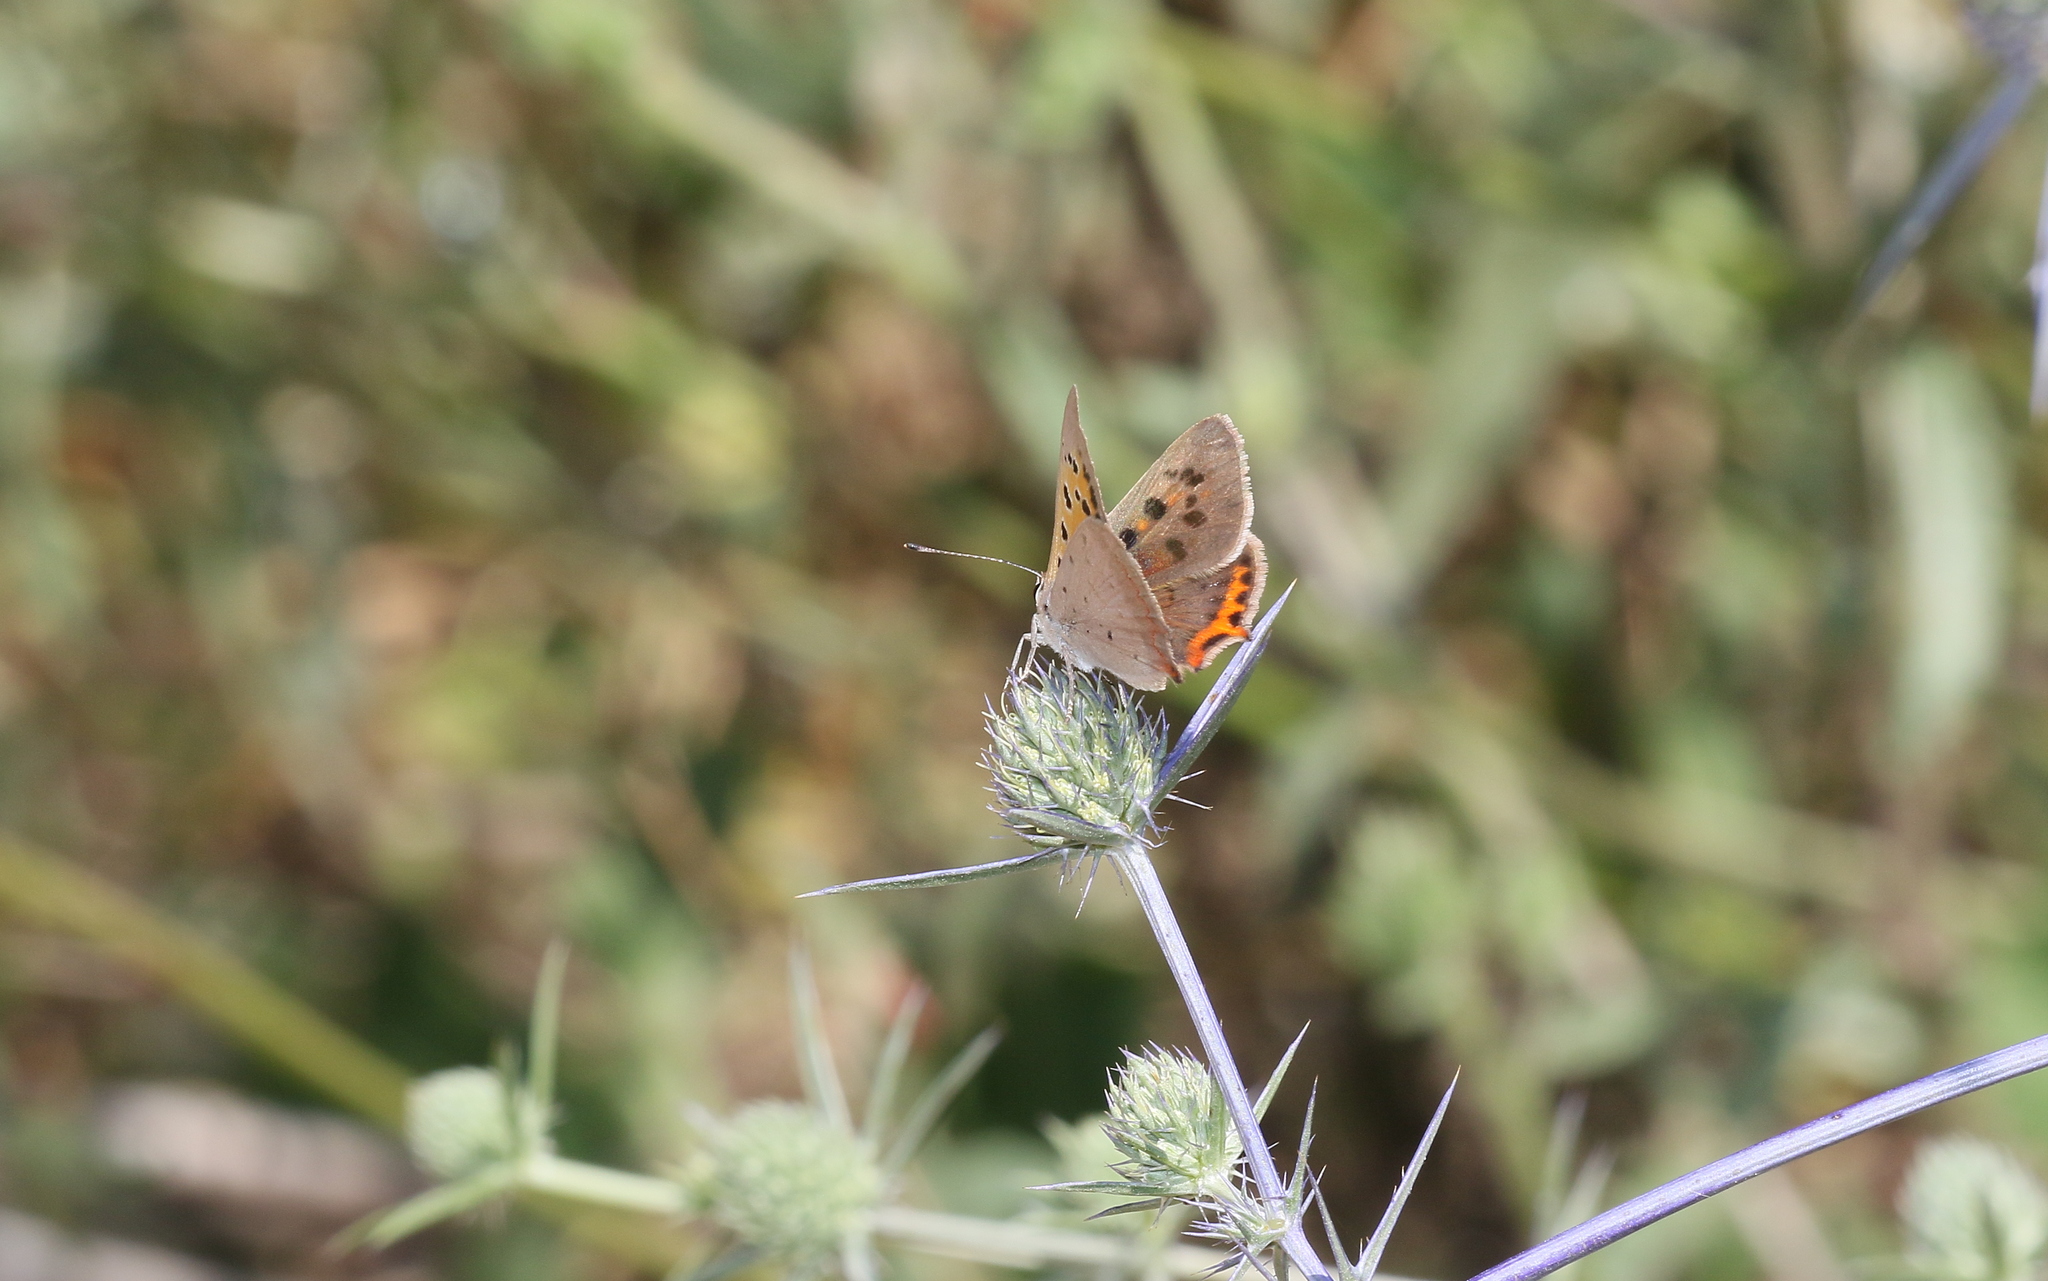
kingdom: Animalia
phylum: Arthropoda
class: Insecta
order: Lepidoptera
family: Lycaenidae
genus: Lycaena
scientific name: Lycaena phlaeas
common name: Small copper
